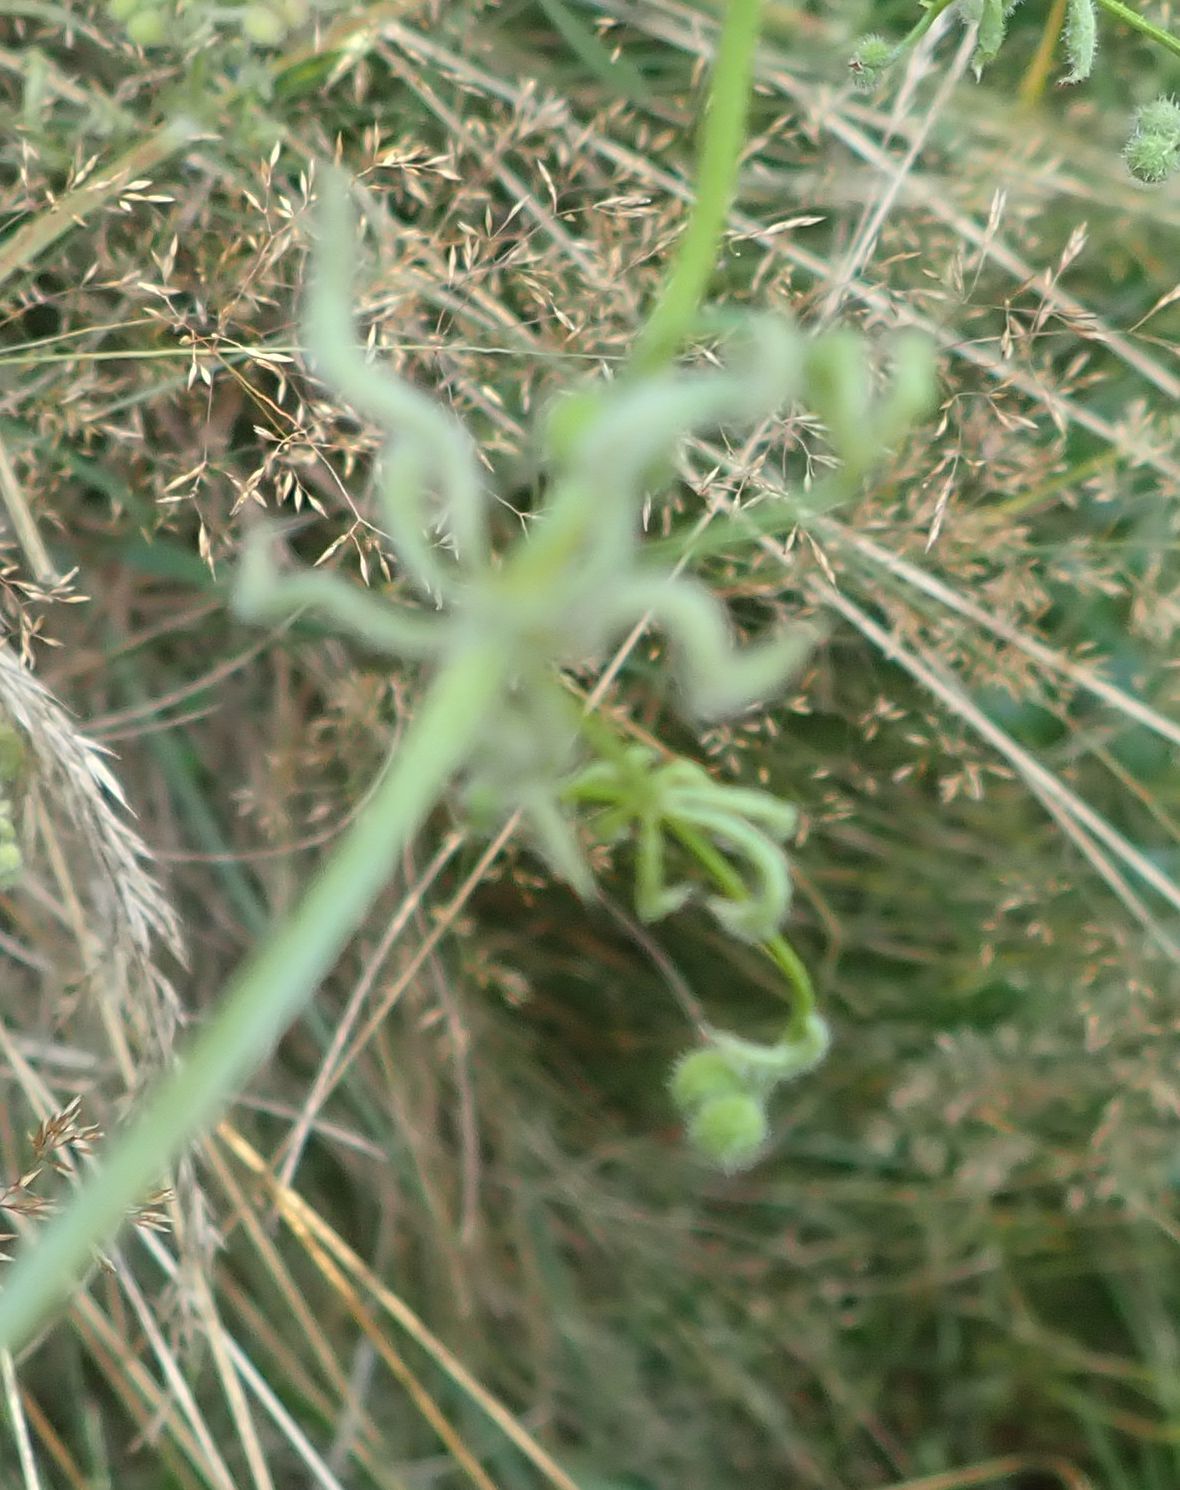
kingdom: Animalia
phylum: Arthropoda
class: Arachnida
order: Trombidiformes
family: Eriophyidae
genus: Cecidophyes
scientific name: Cecidophyes rouhollahi
